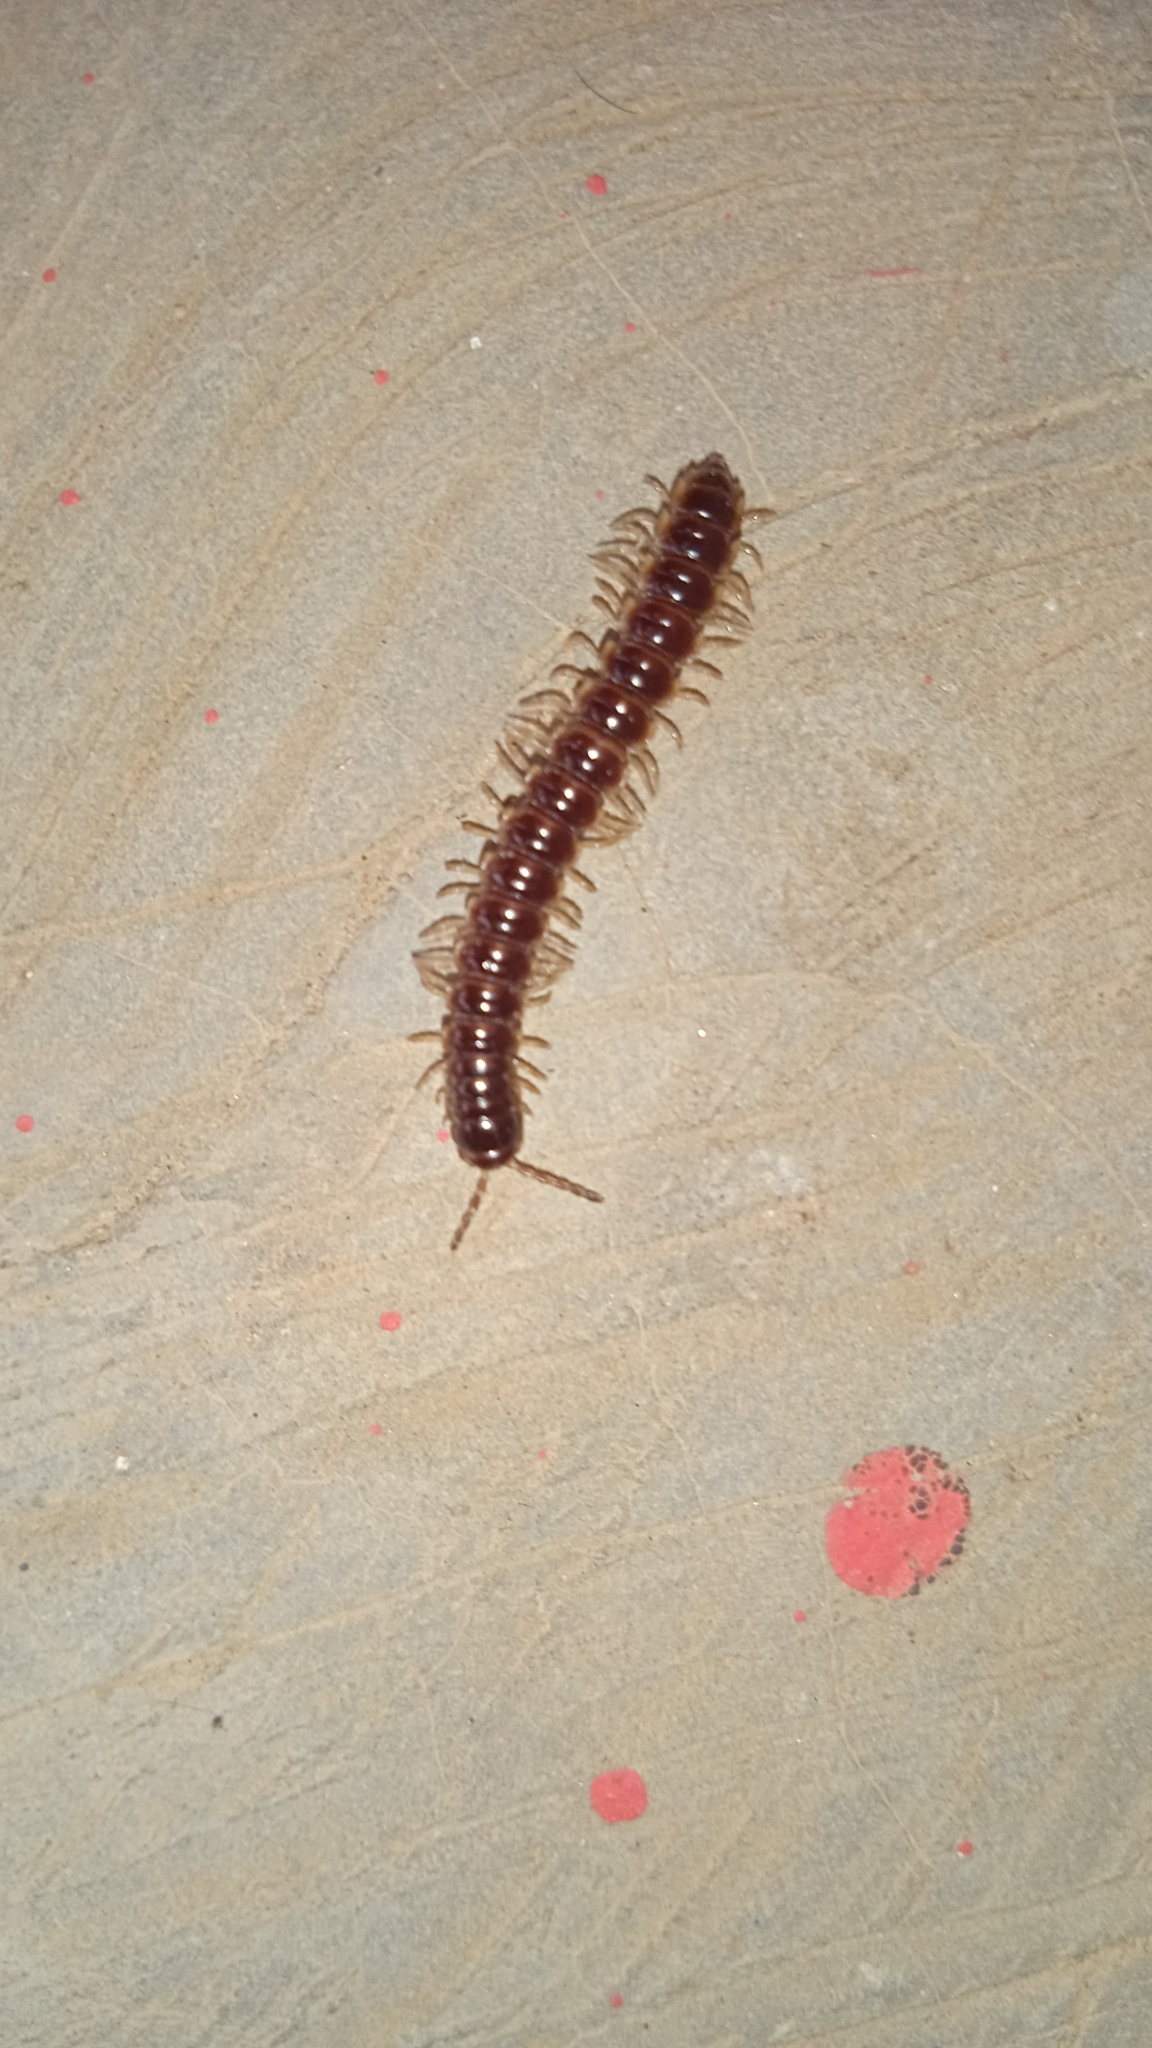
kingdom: Animalia
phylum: Arthropoda
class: Diplopoda
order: Polydesmida
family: Paradoxosomatidae
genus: Oxidus
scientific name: Oxidus gracilis
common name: Greenhouse millipede
